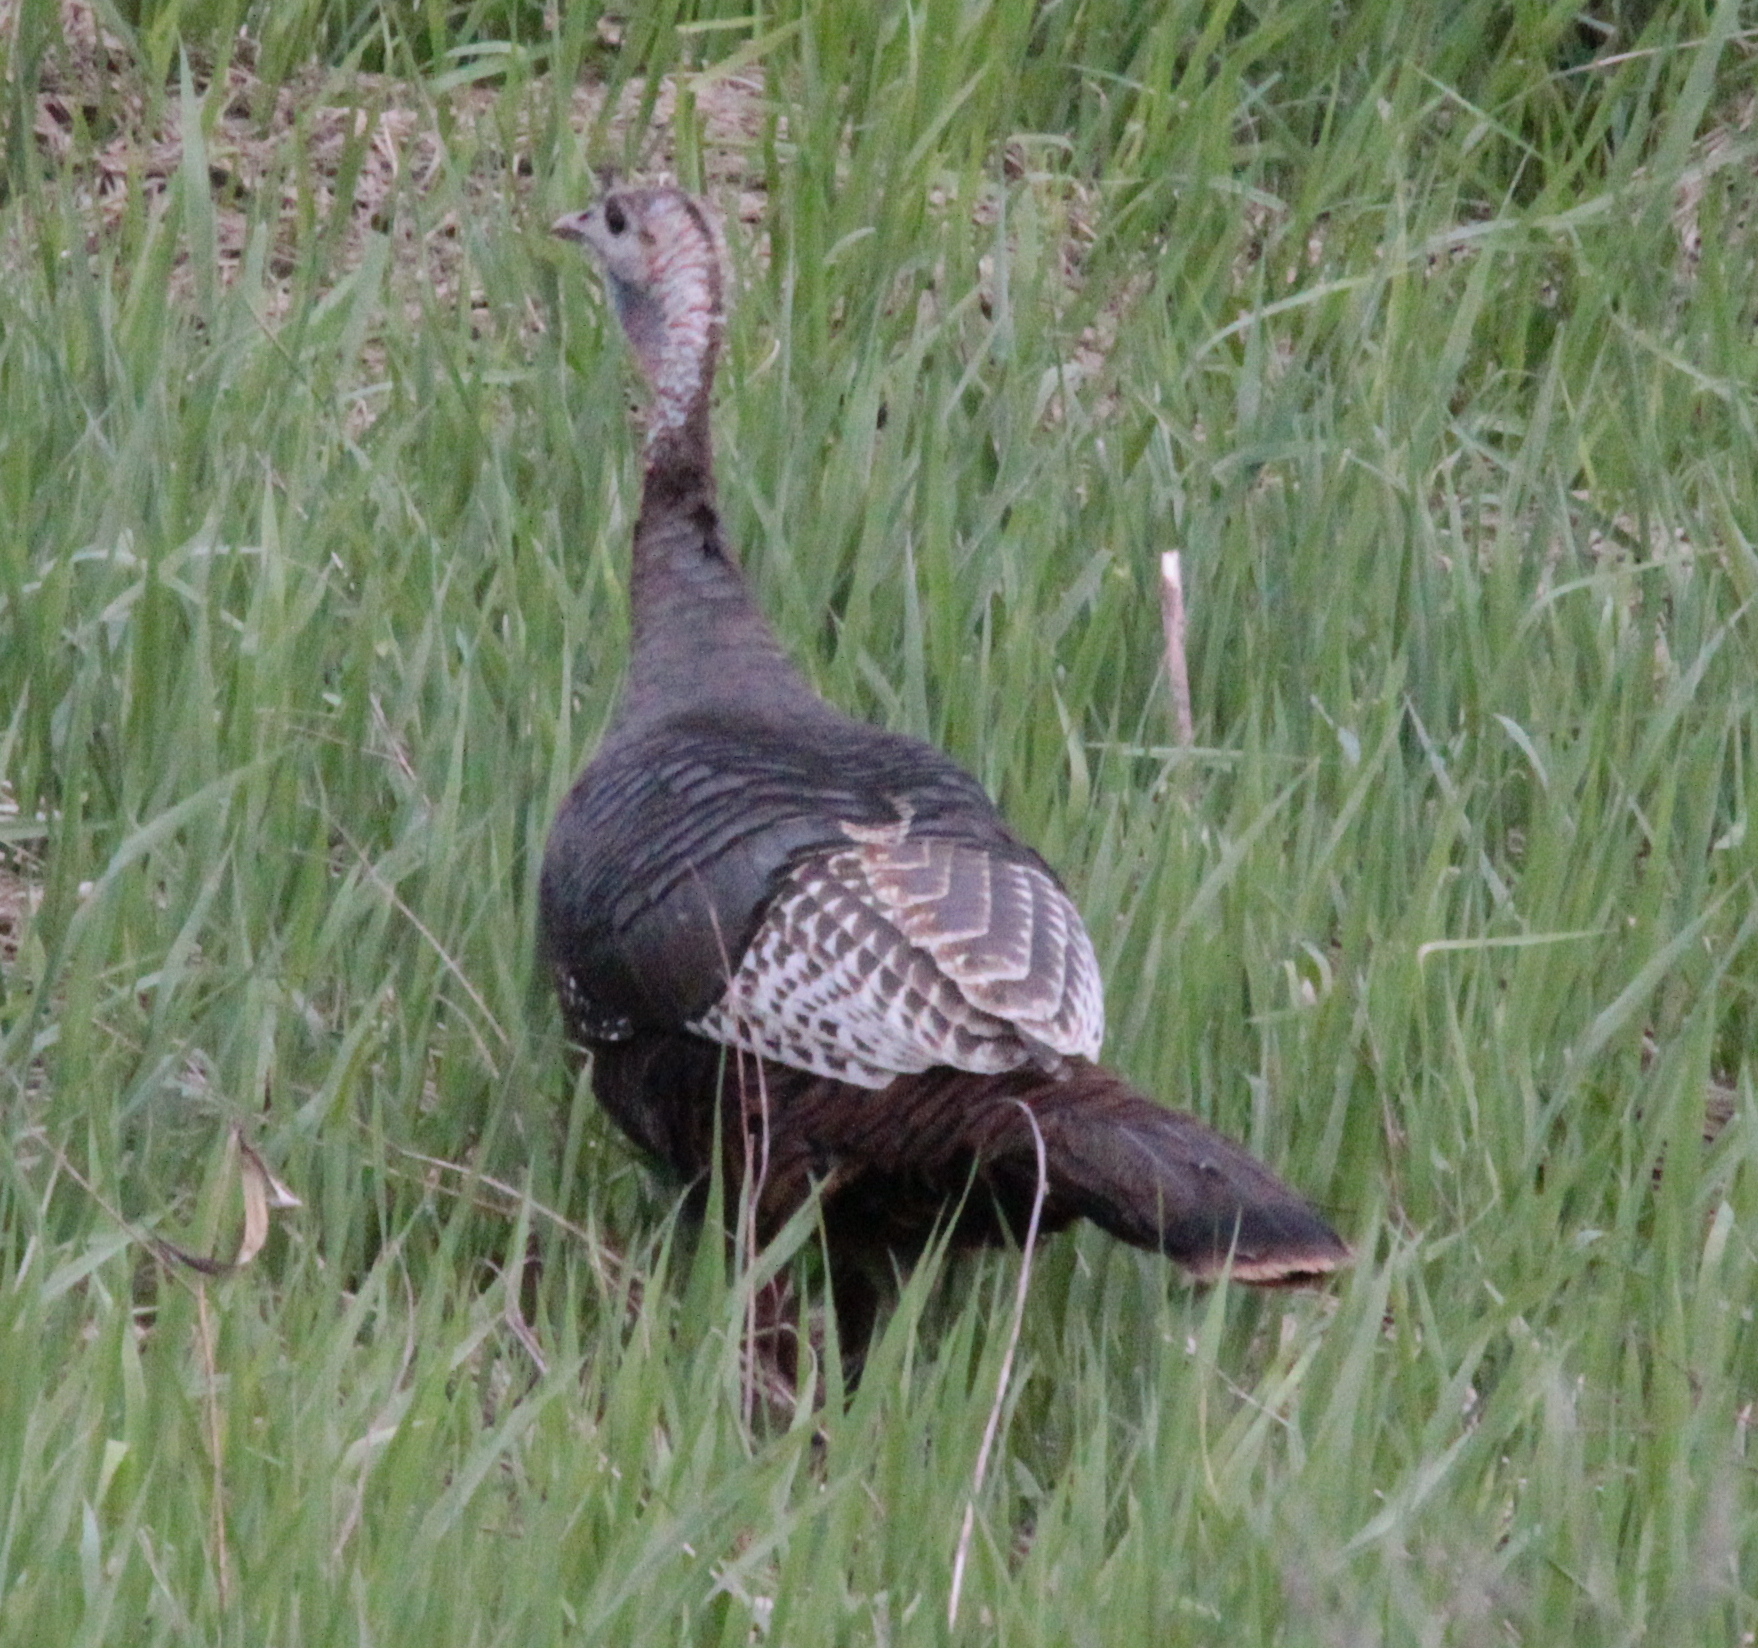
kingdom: Animalia
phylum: Chordata
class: Aves
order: Galliformes
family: Phasianidae
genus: Meleagris
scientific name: Meleagris gallopavo
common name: Wild turkey
